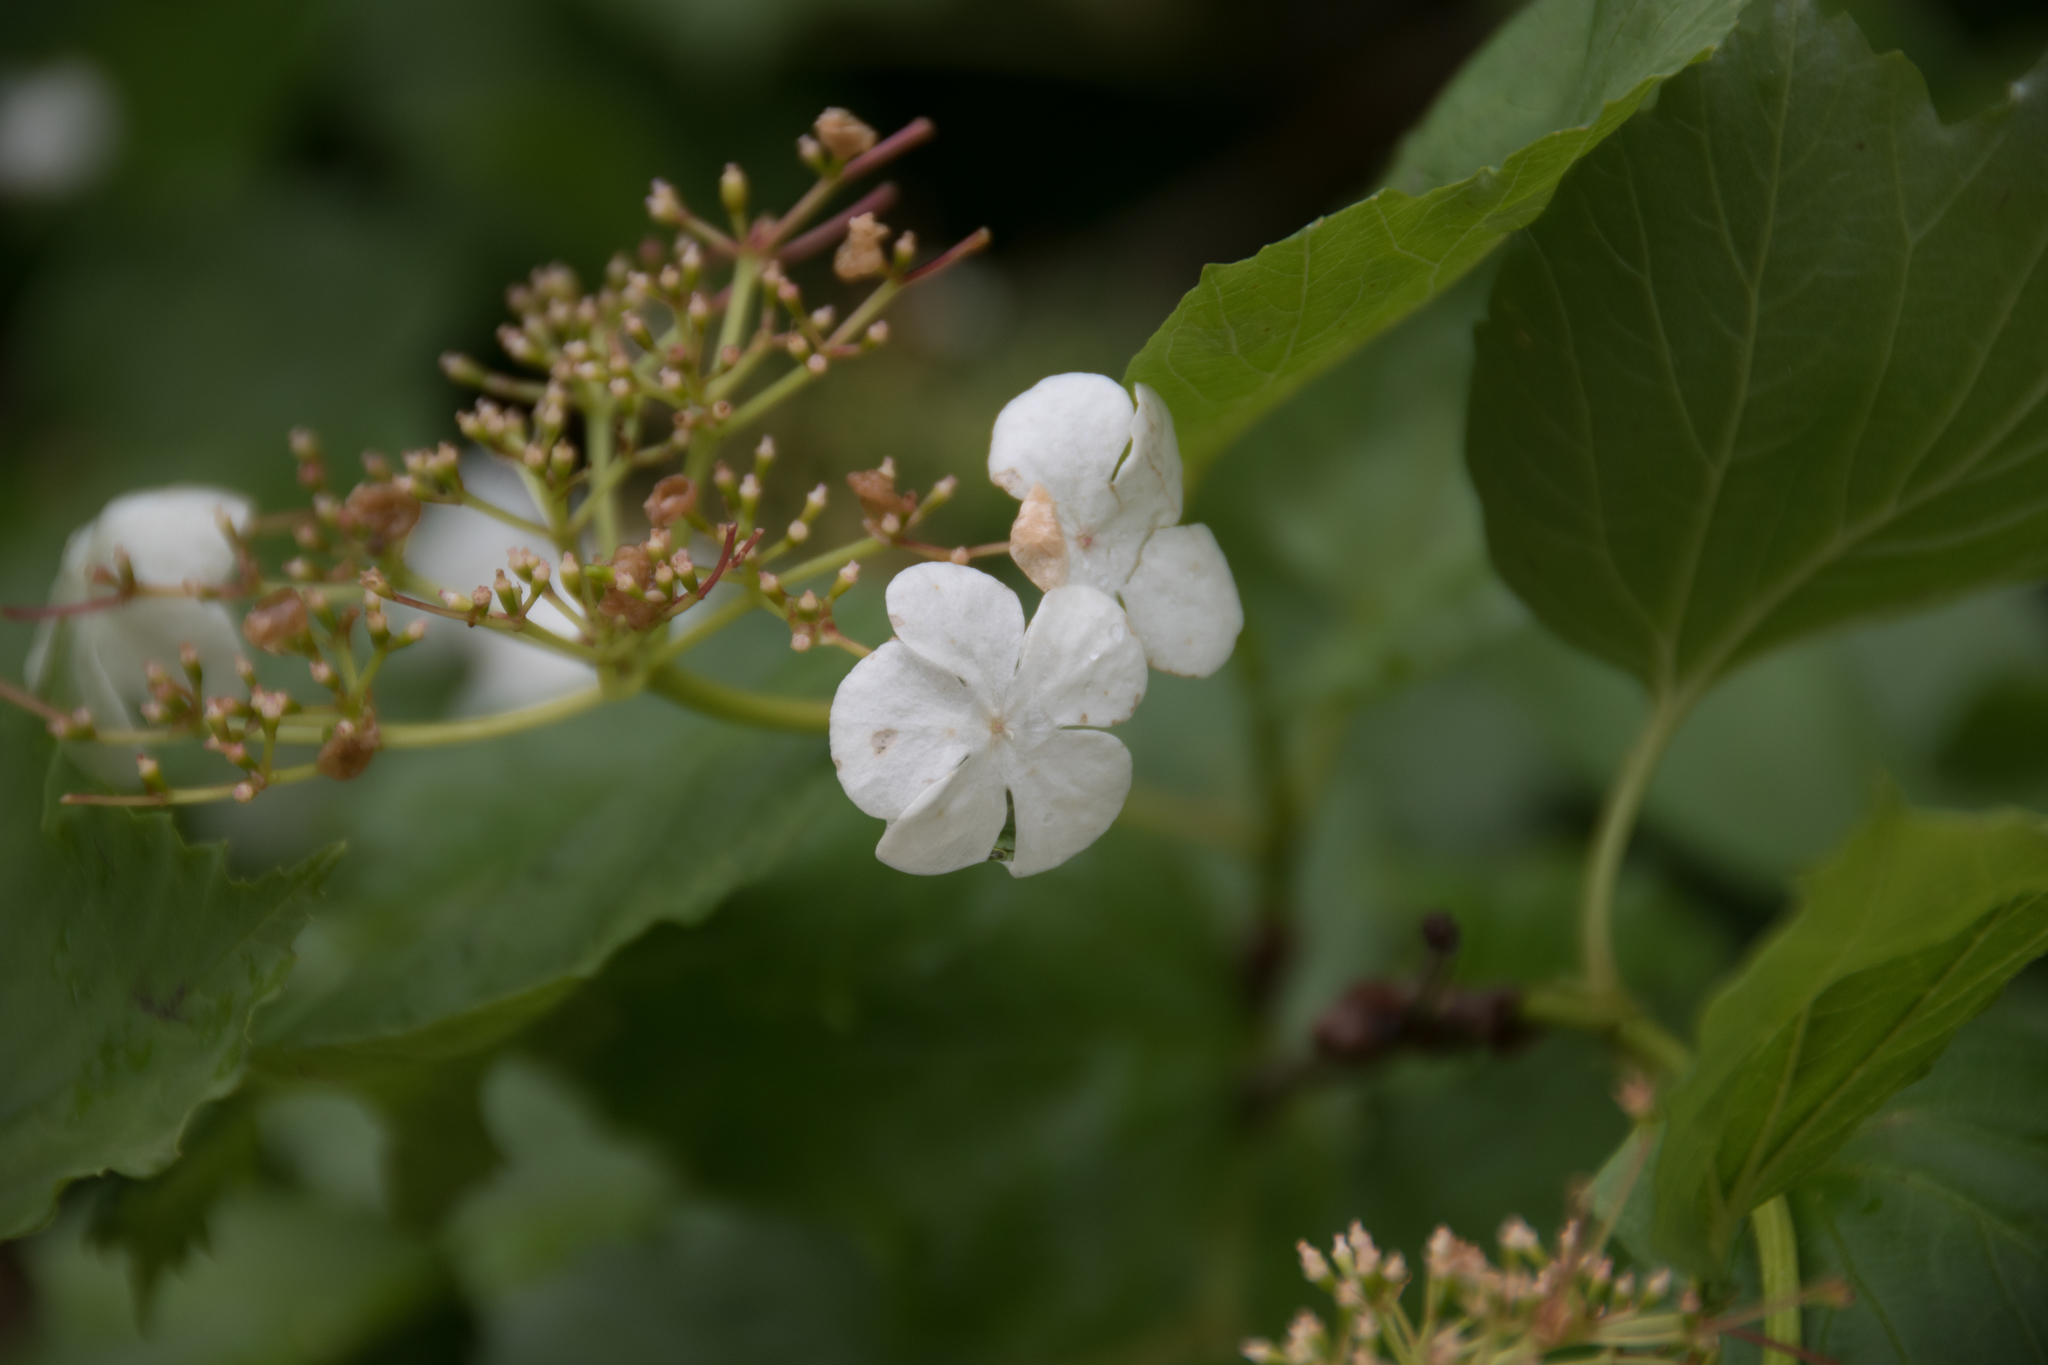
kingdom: Plantae
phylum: Tracheophyta
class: Magnoliopsida
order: Dipsacales
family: Viburnaceae
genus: Viburnum
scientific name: Viburnum opulus
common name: Guelder-rose
